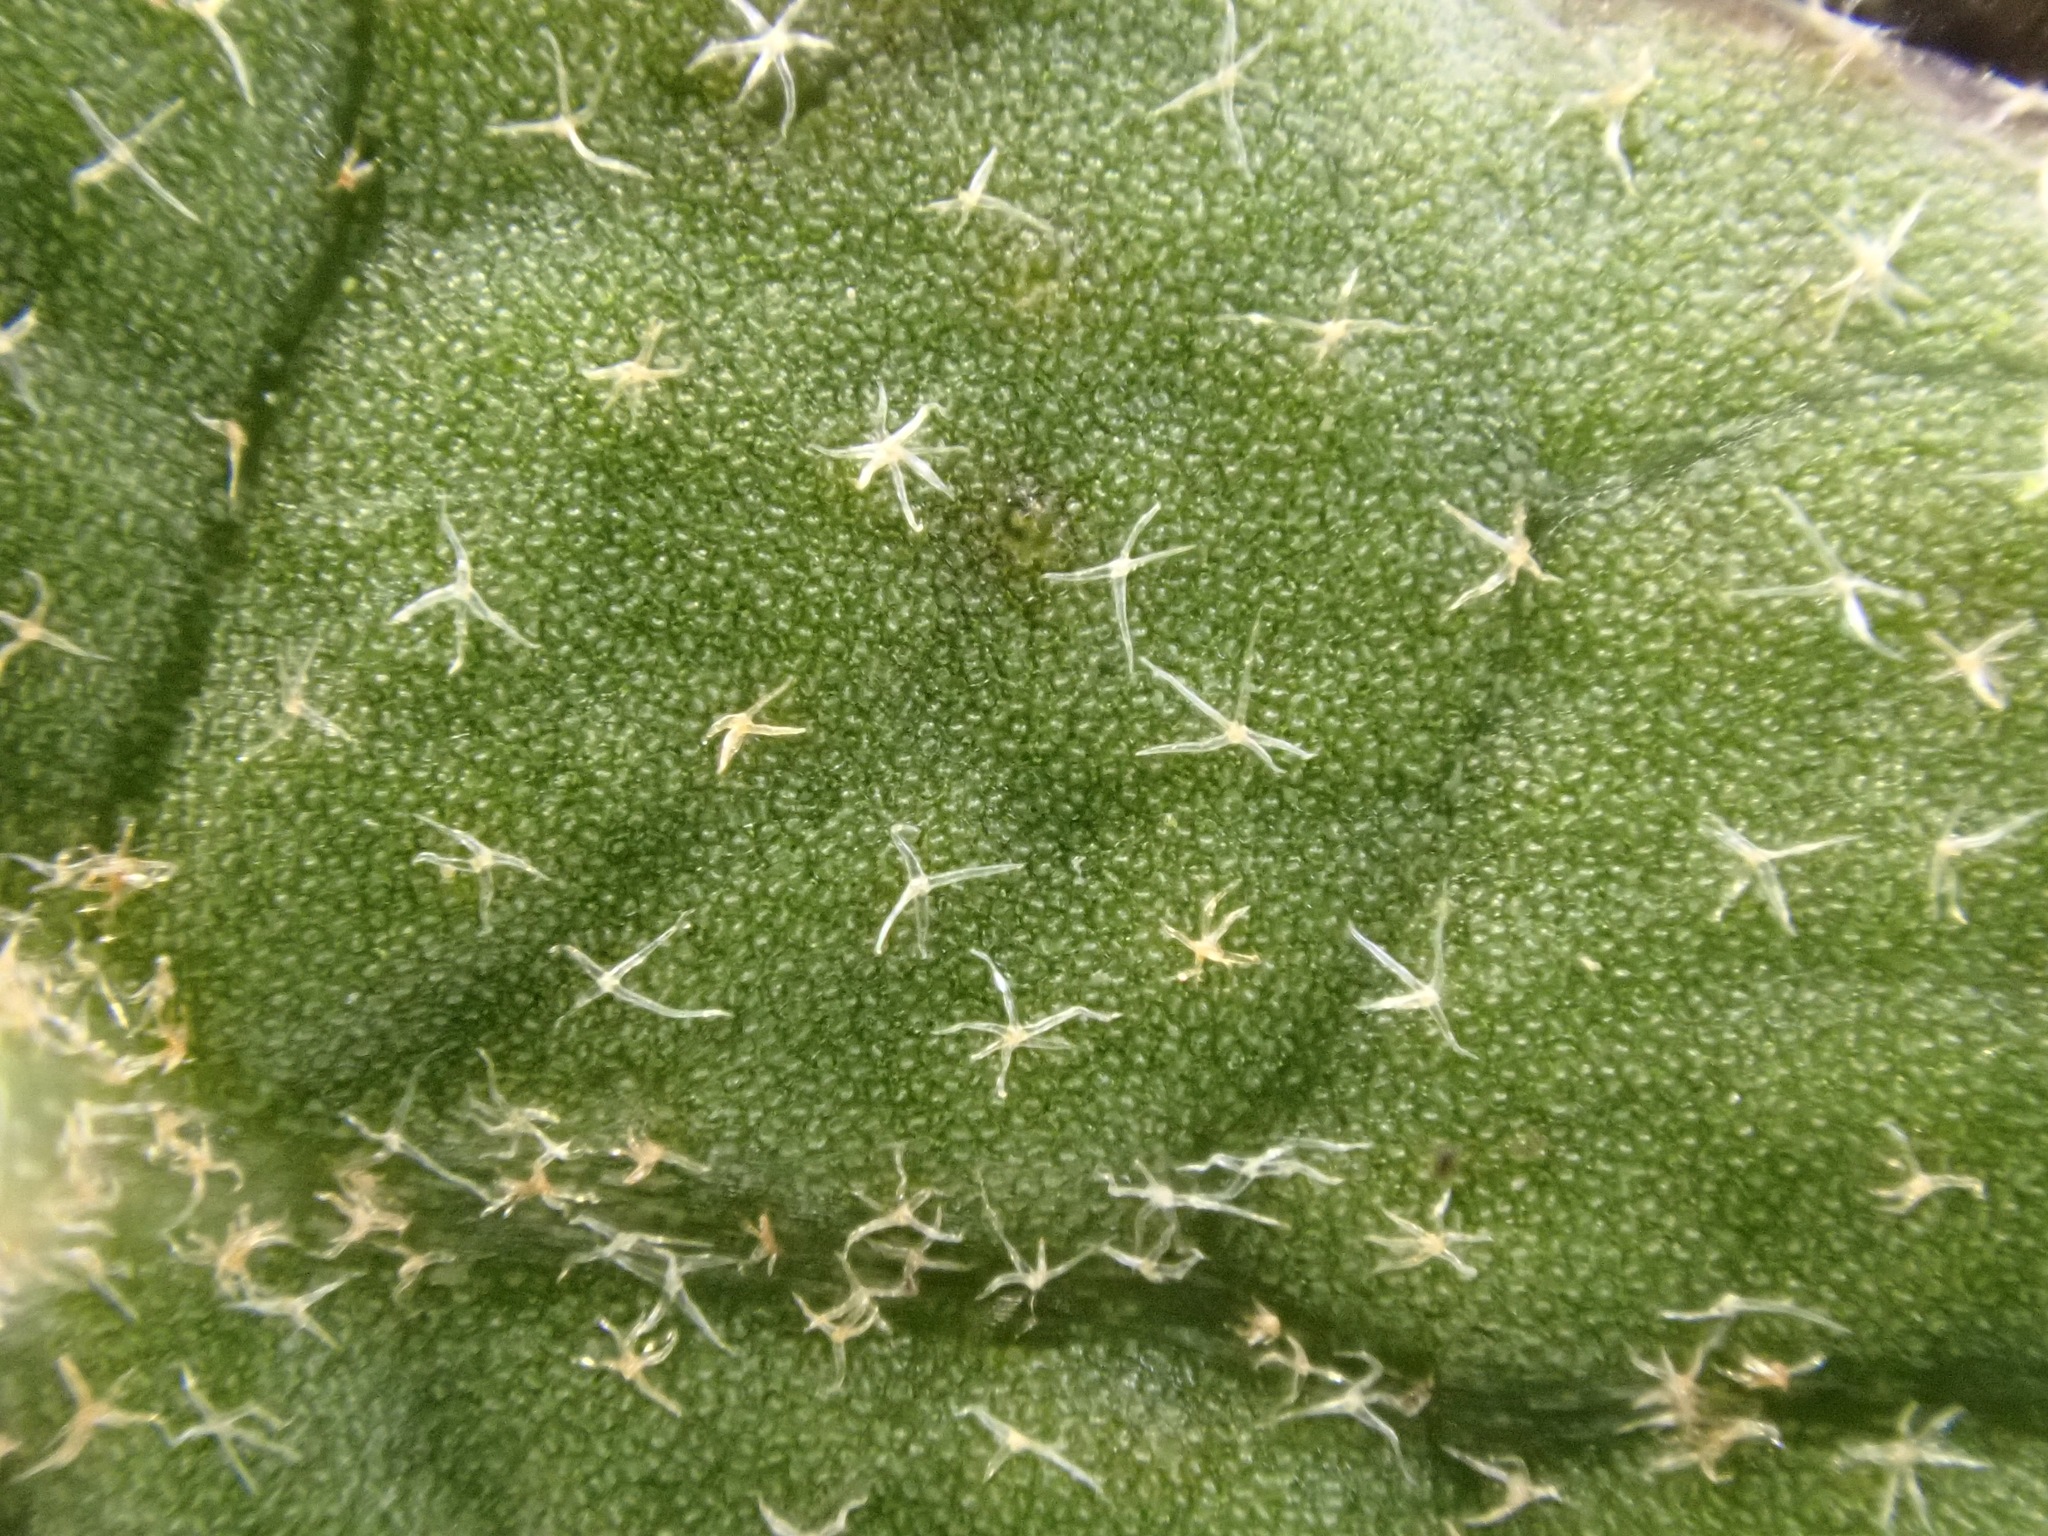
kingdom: Plantae
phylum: Tracheophyta
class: Magnoliopsida
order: Apiales
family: Araliaceae
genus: Hedera
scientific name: Hedera helix
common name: Ivy
